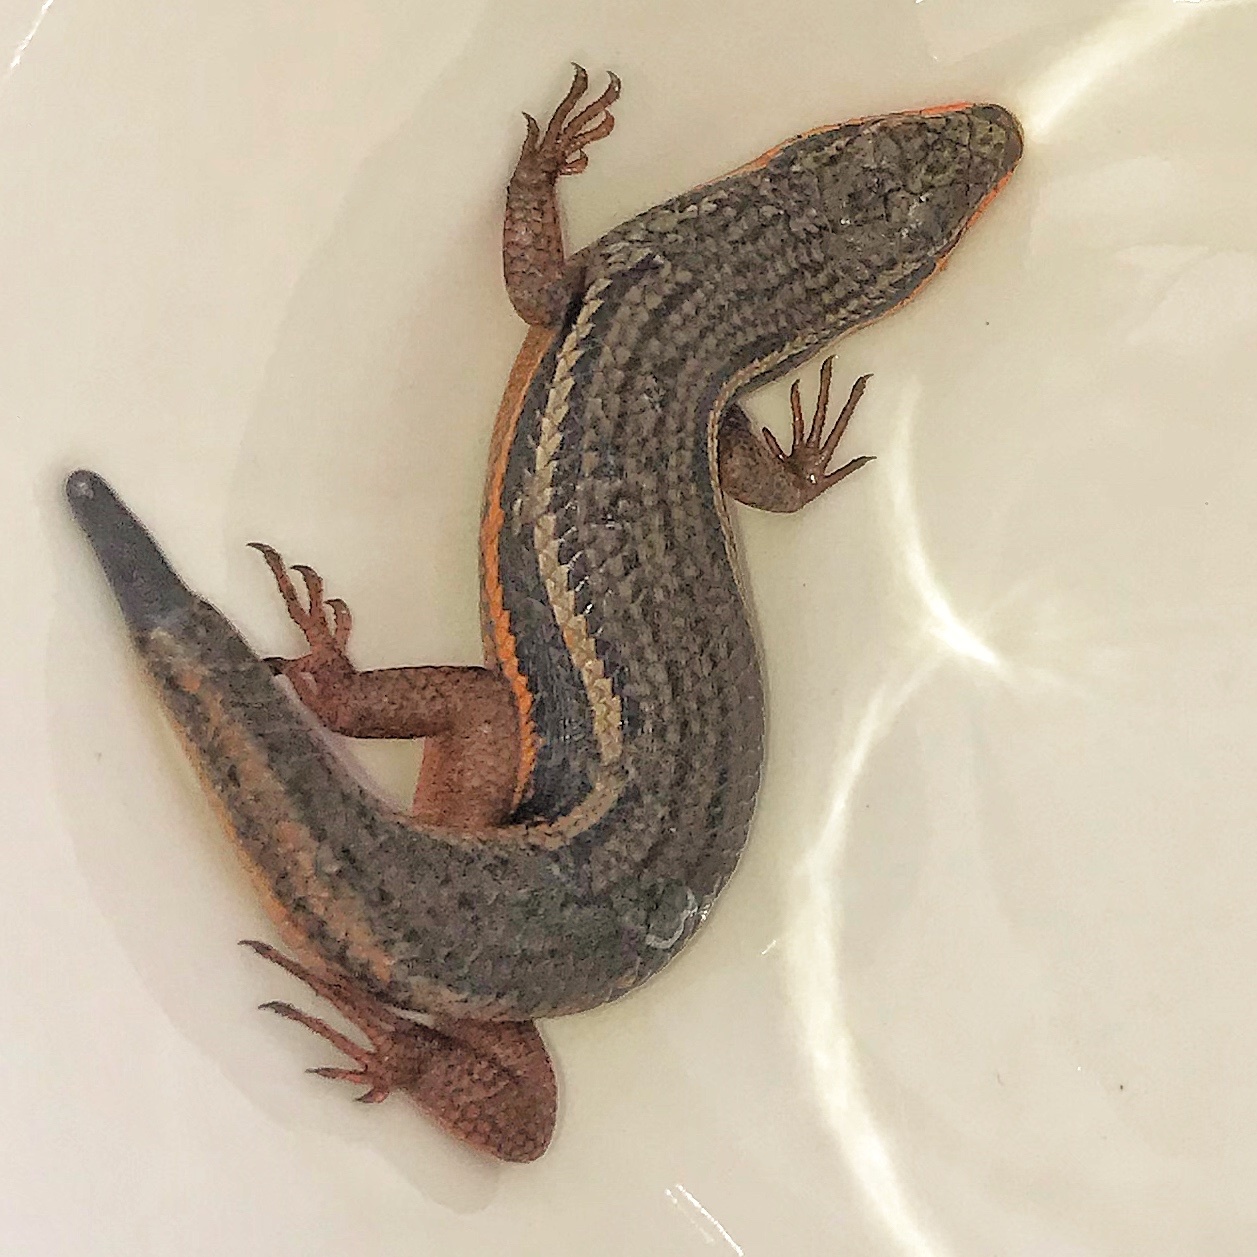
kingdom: Animalia
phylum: Chordata
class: Squamata
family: Scincidae
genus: Trachylepis
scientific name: Trachylepis homalocephala
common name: Red-sided skink
